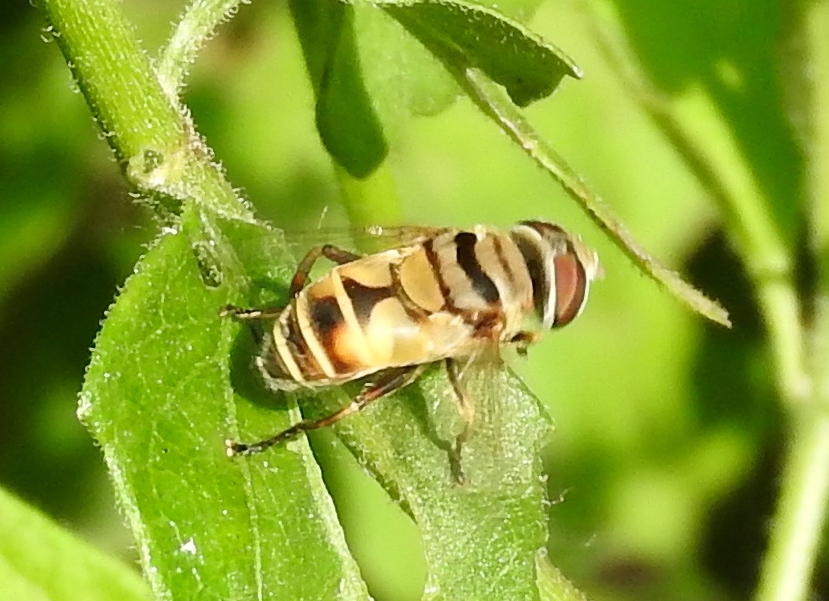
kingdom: Animalia
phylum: Arthropoda
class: Insecta
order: Diptera
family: Syrphidae
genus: Palpada
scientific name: Palpada vinetorum
